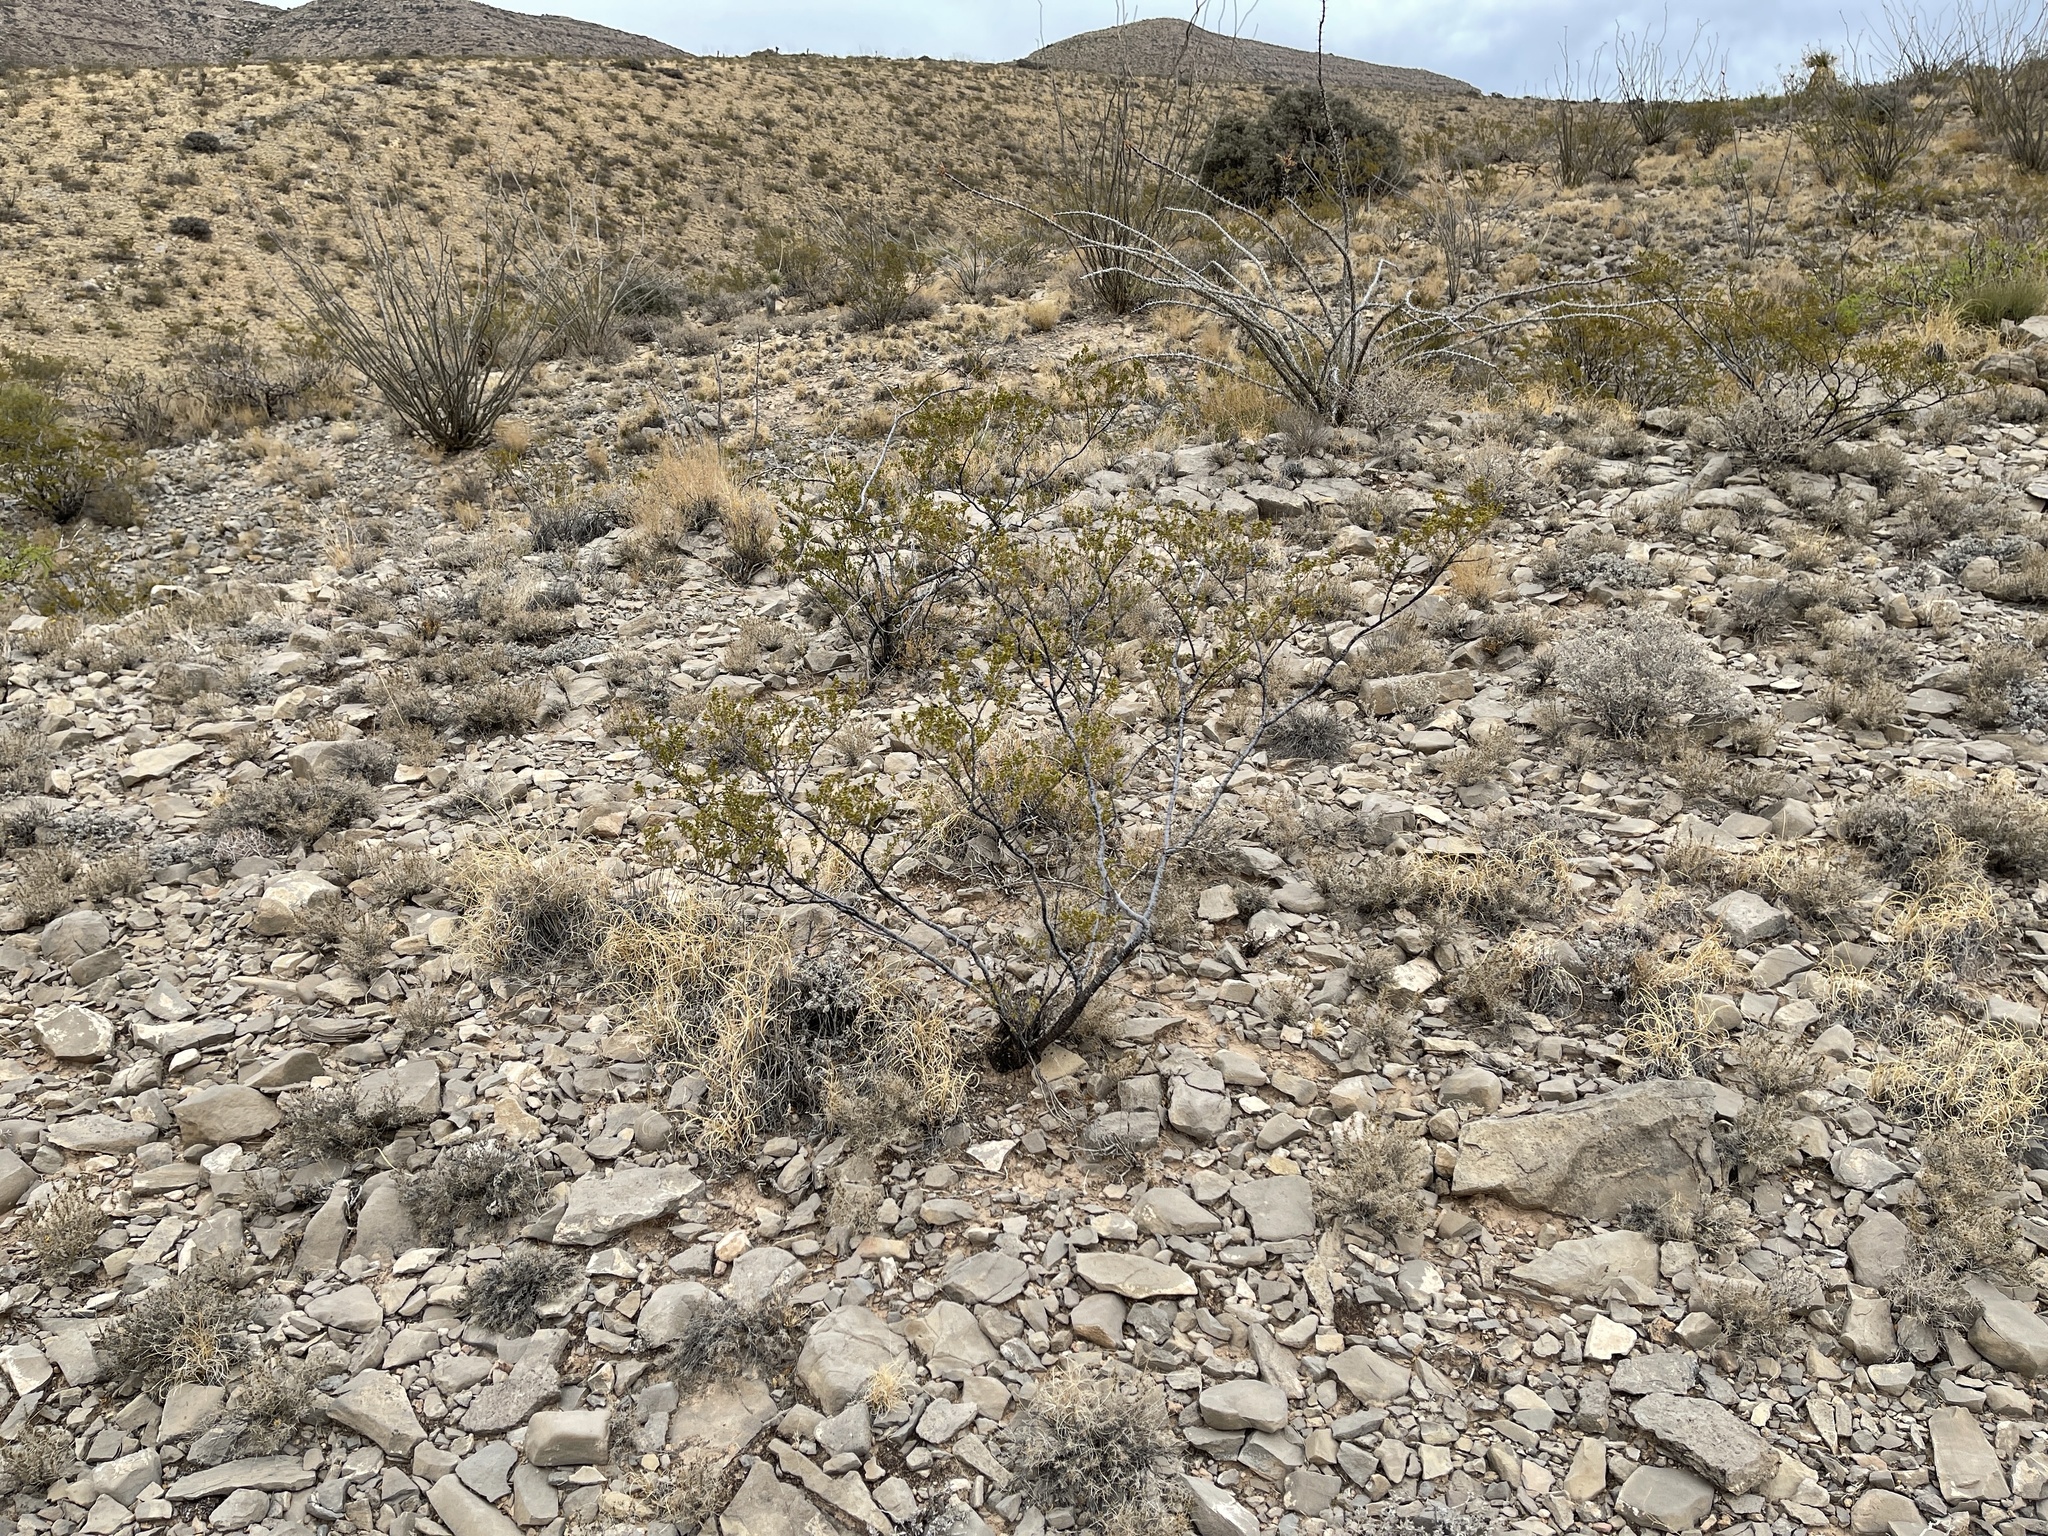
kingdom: Plantae
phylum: Tracheophyta
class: Magnoliopsida
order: Zygophyllales
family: Zygophyllaceae
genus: Larrea
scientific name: Larrea tridentata
